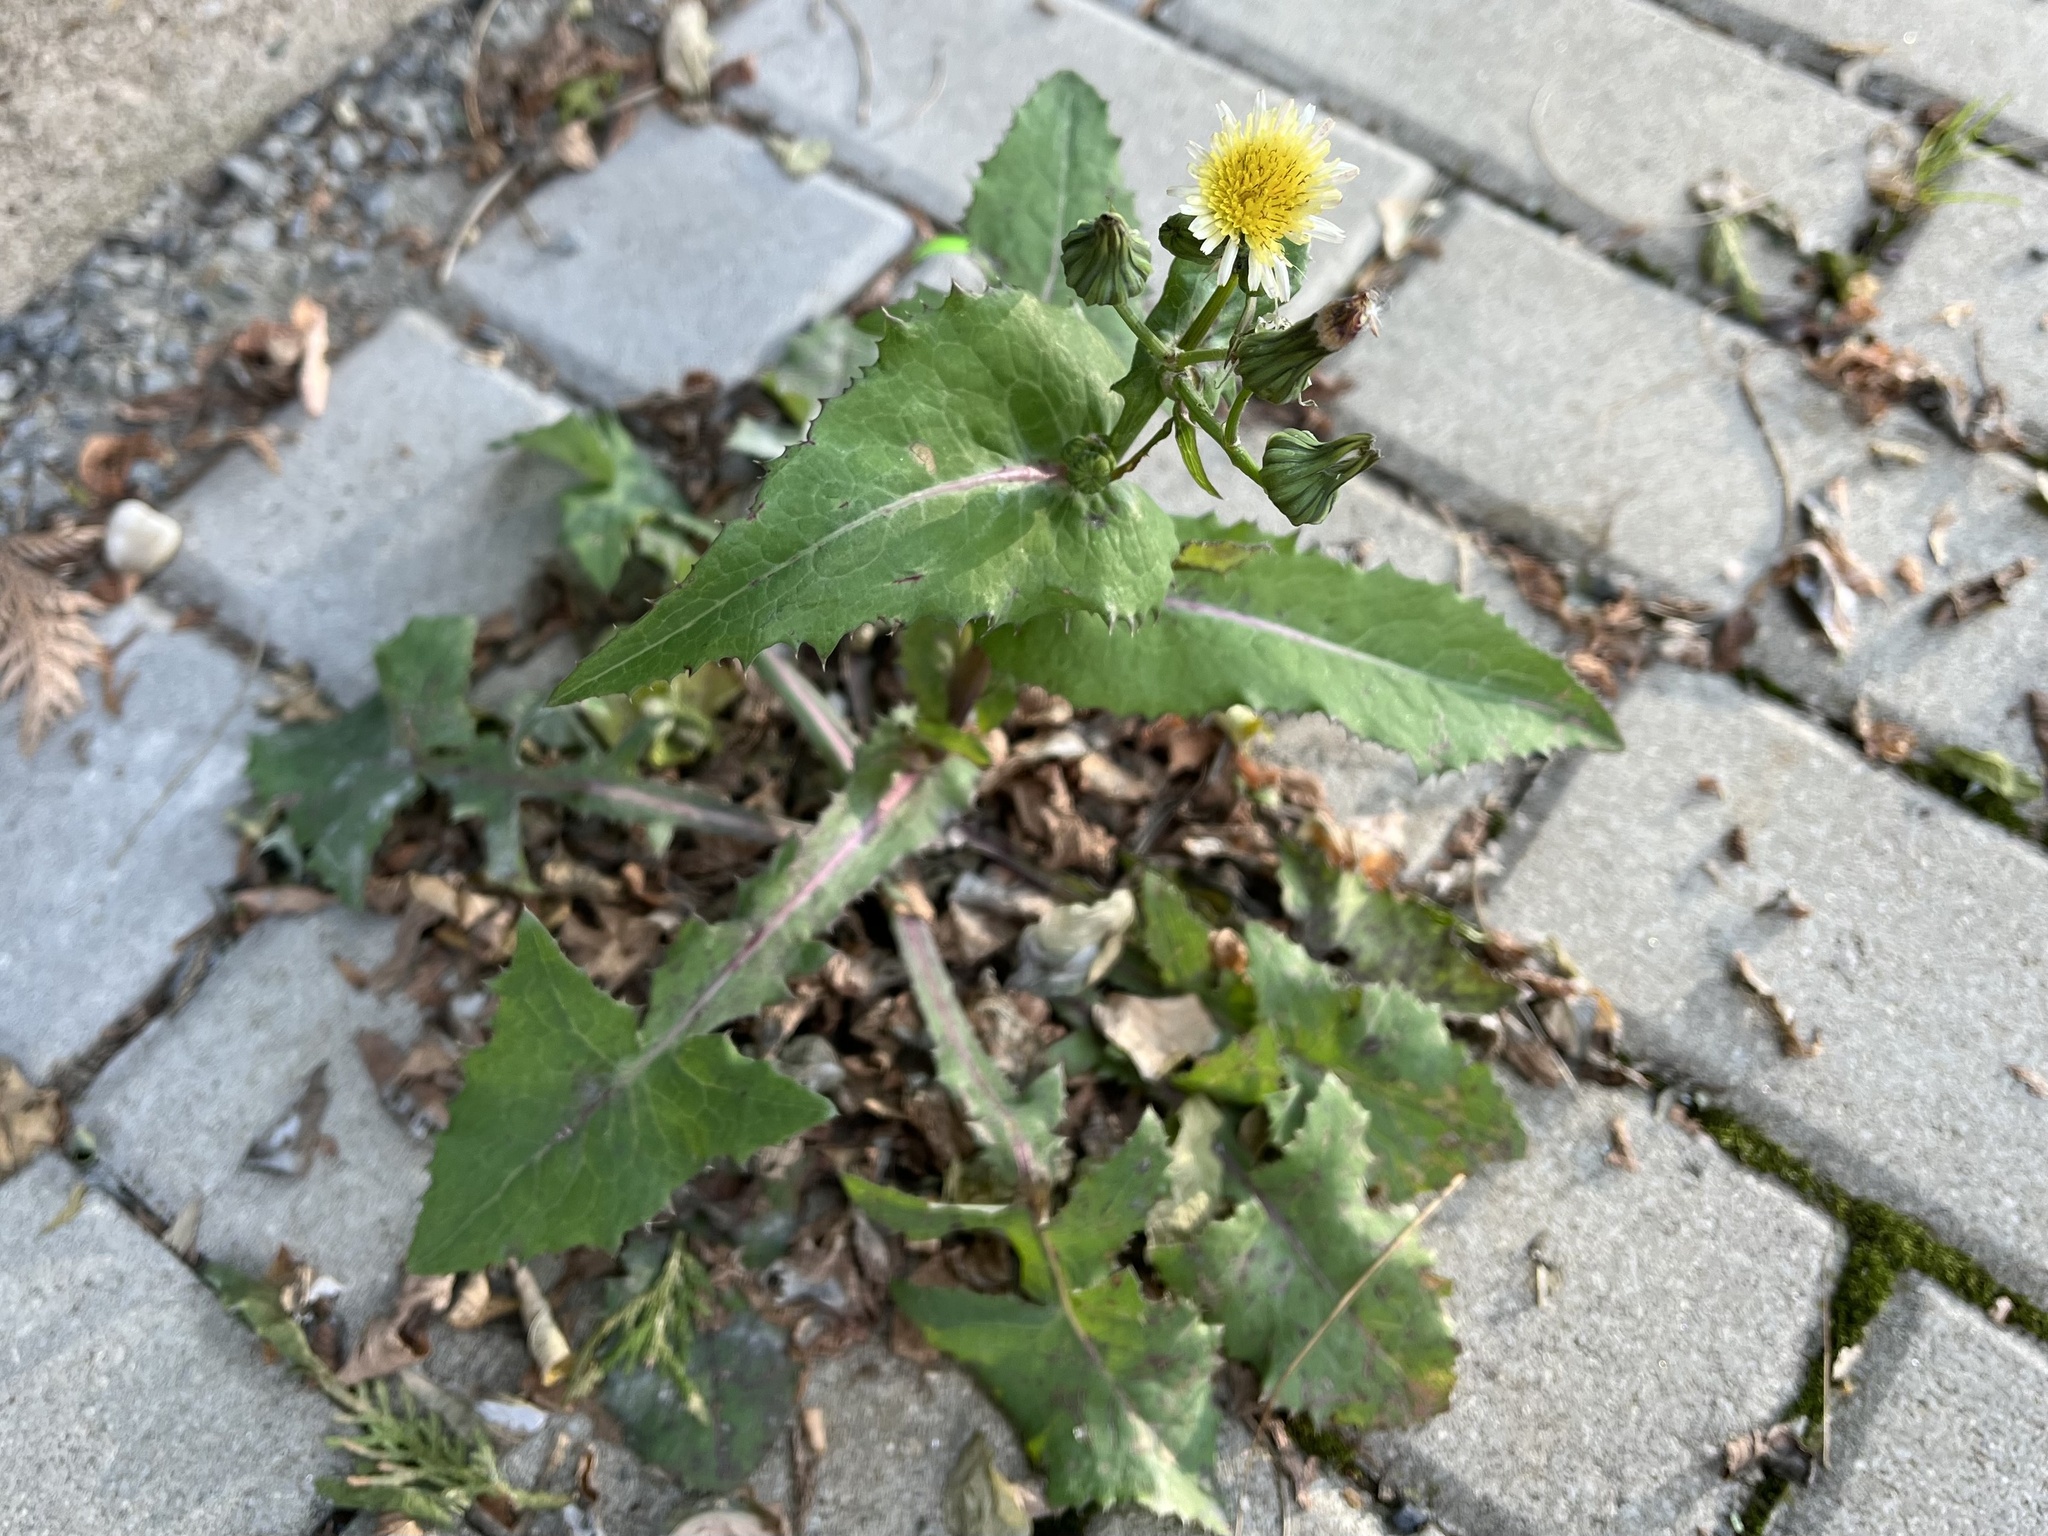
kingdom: Plantae
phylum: Tracheophyta
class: Magnoliopsida
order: Asterales
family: Asteraceae
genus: Sonchus
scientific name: Sonchus oleraceus
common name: Common sowthistle
